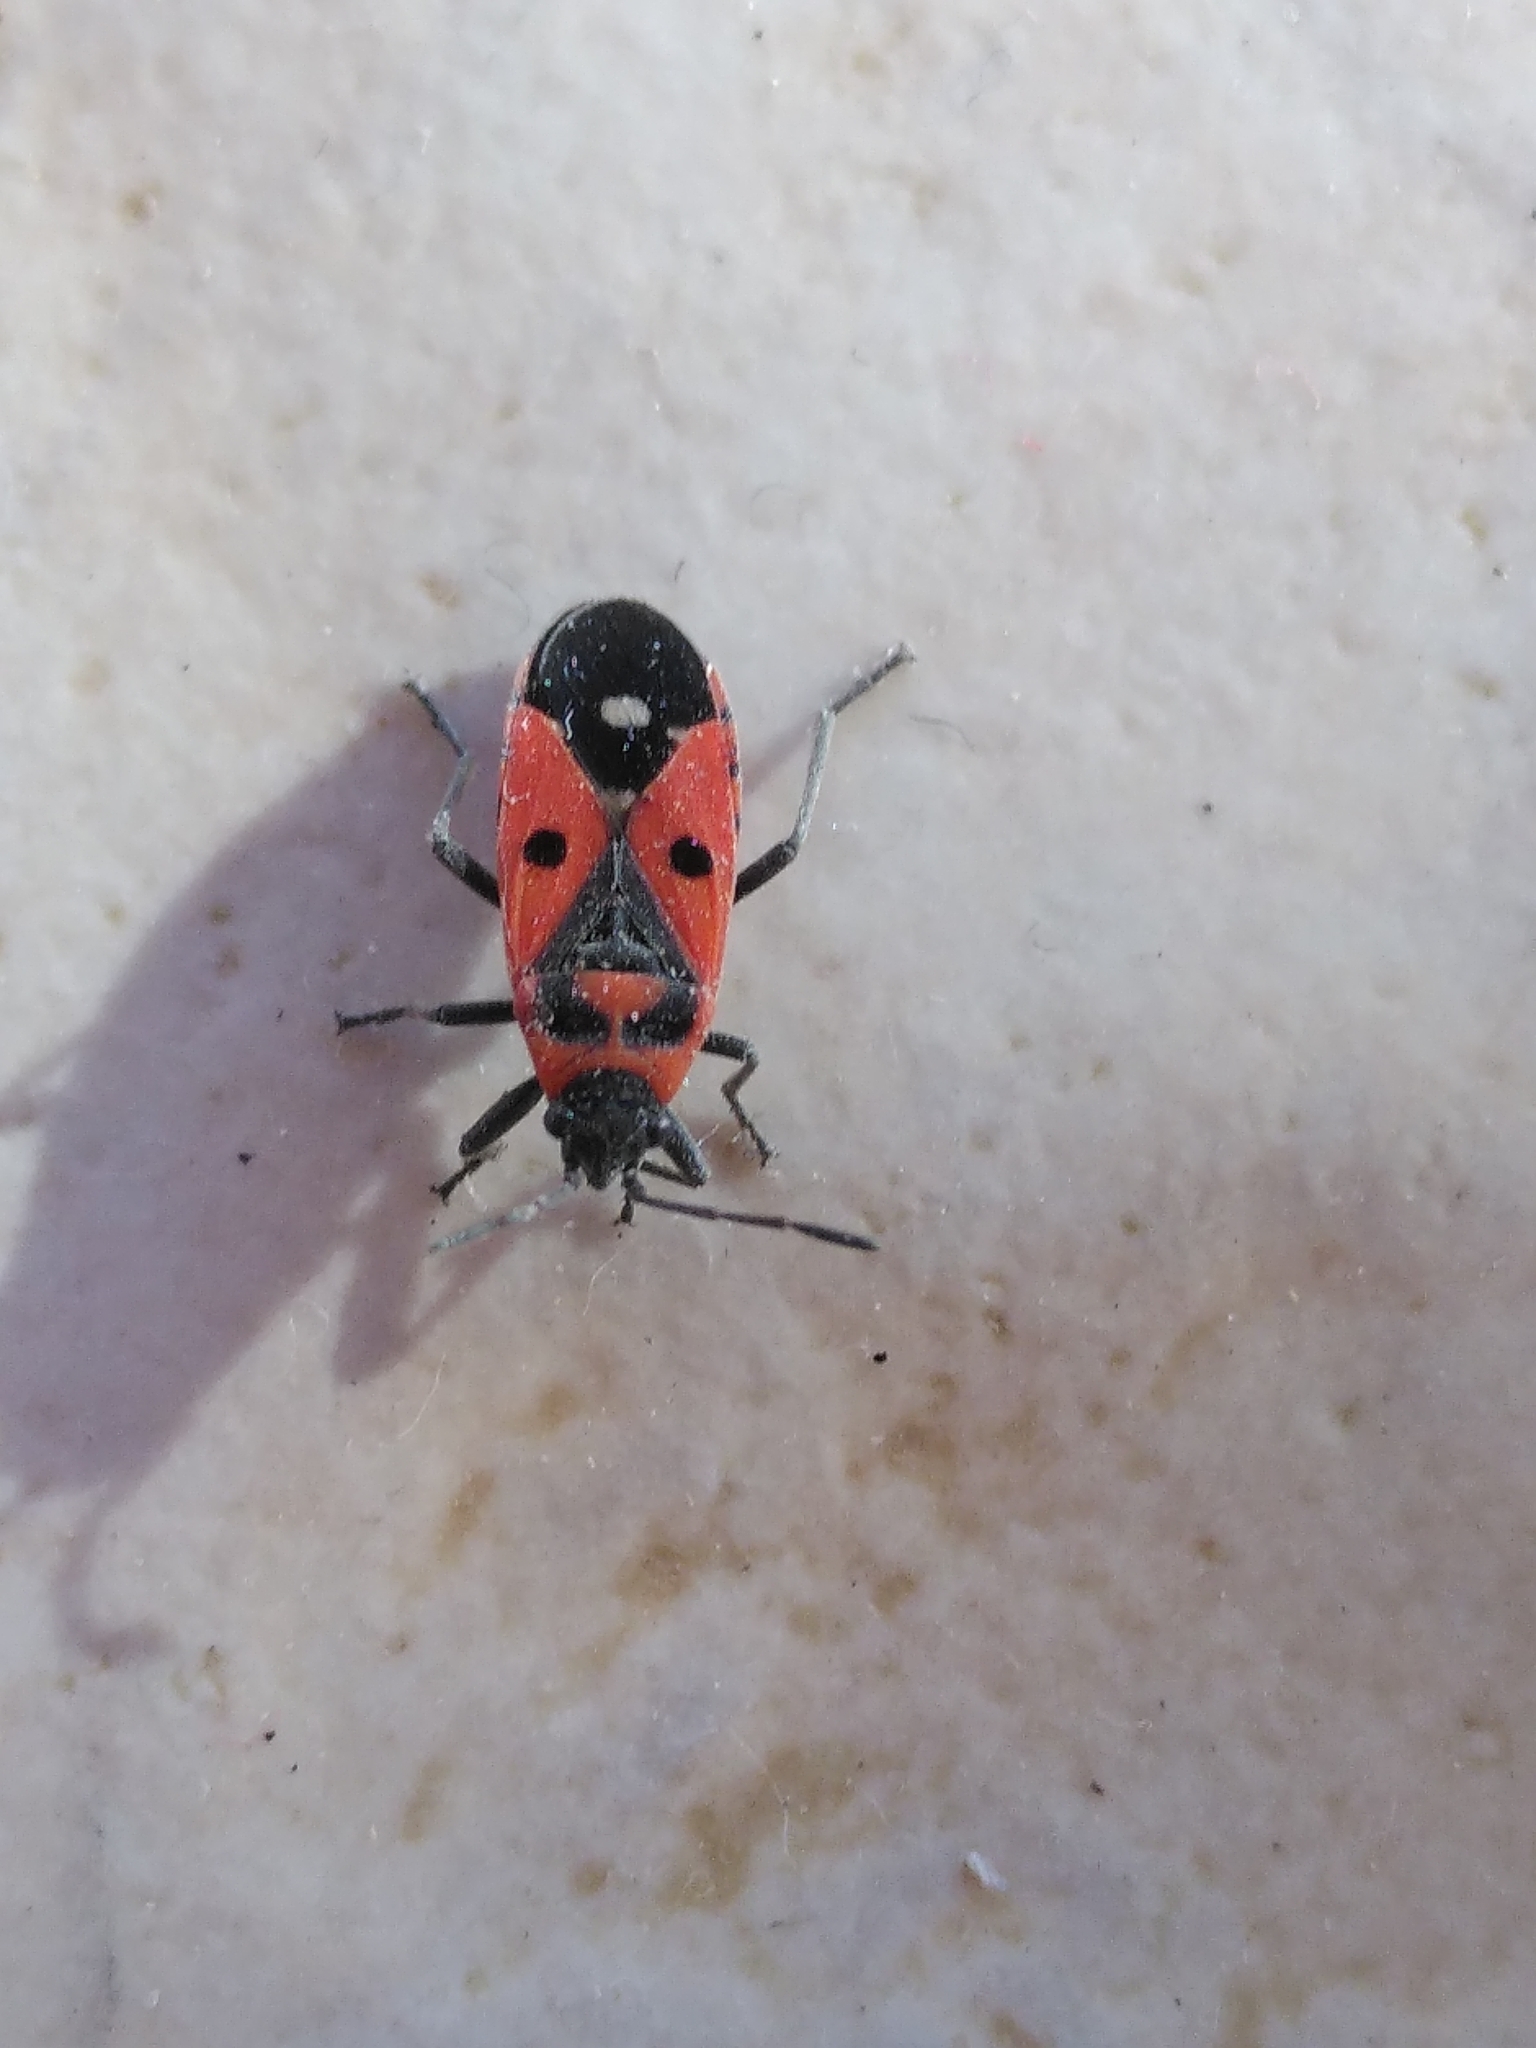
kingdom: Animalia
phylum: Arthropoda
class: Insecta
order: Hemiptera
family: Lygaeidae
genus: Melanocoryphus
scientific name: Melanocoryphus albomaculatus
